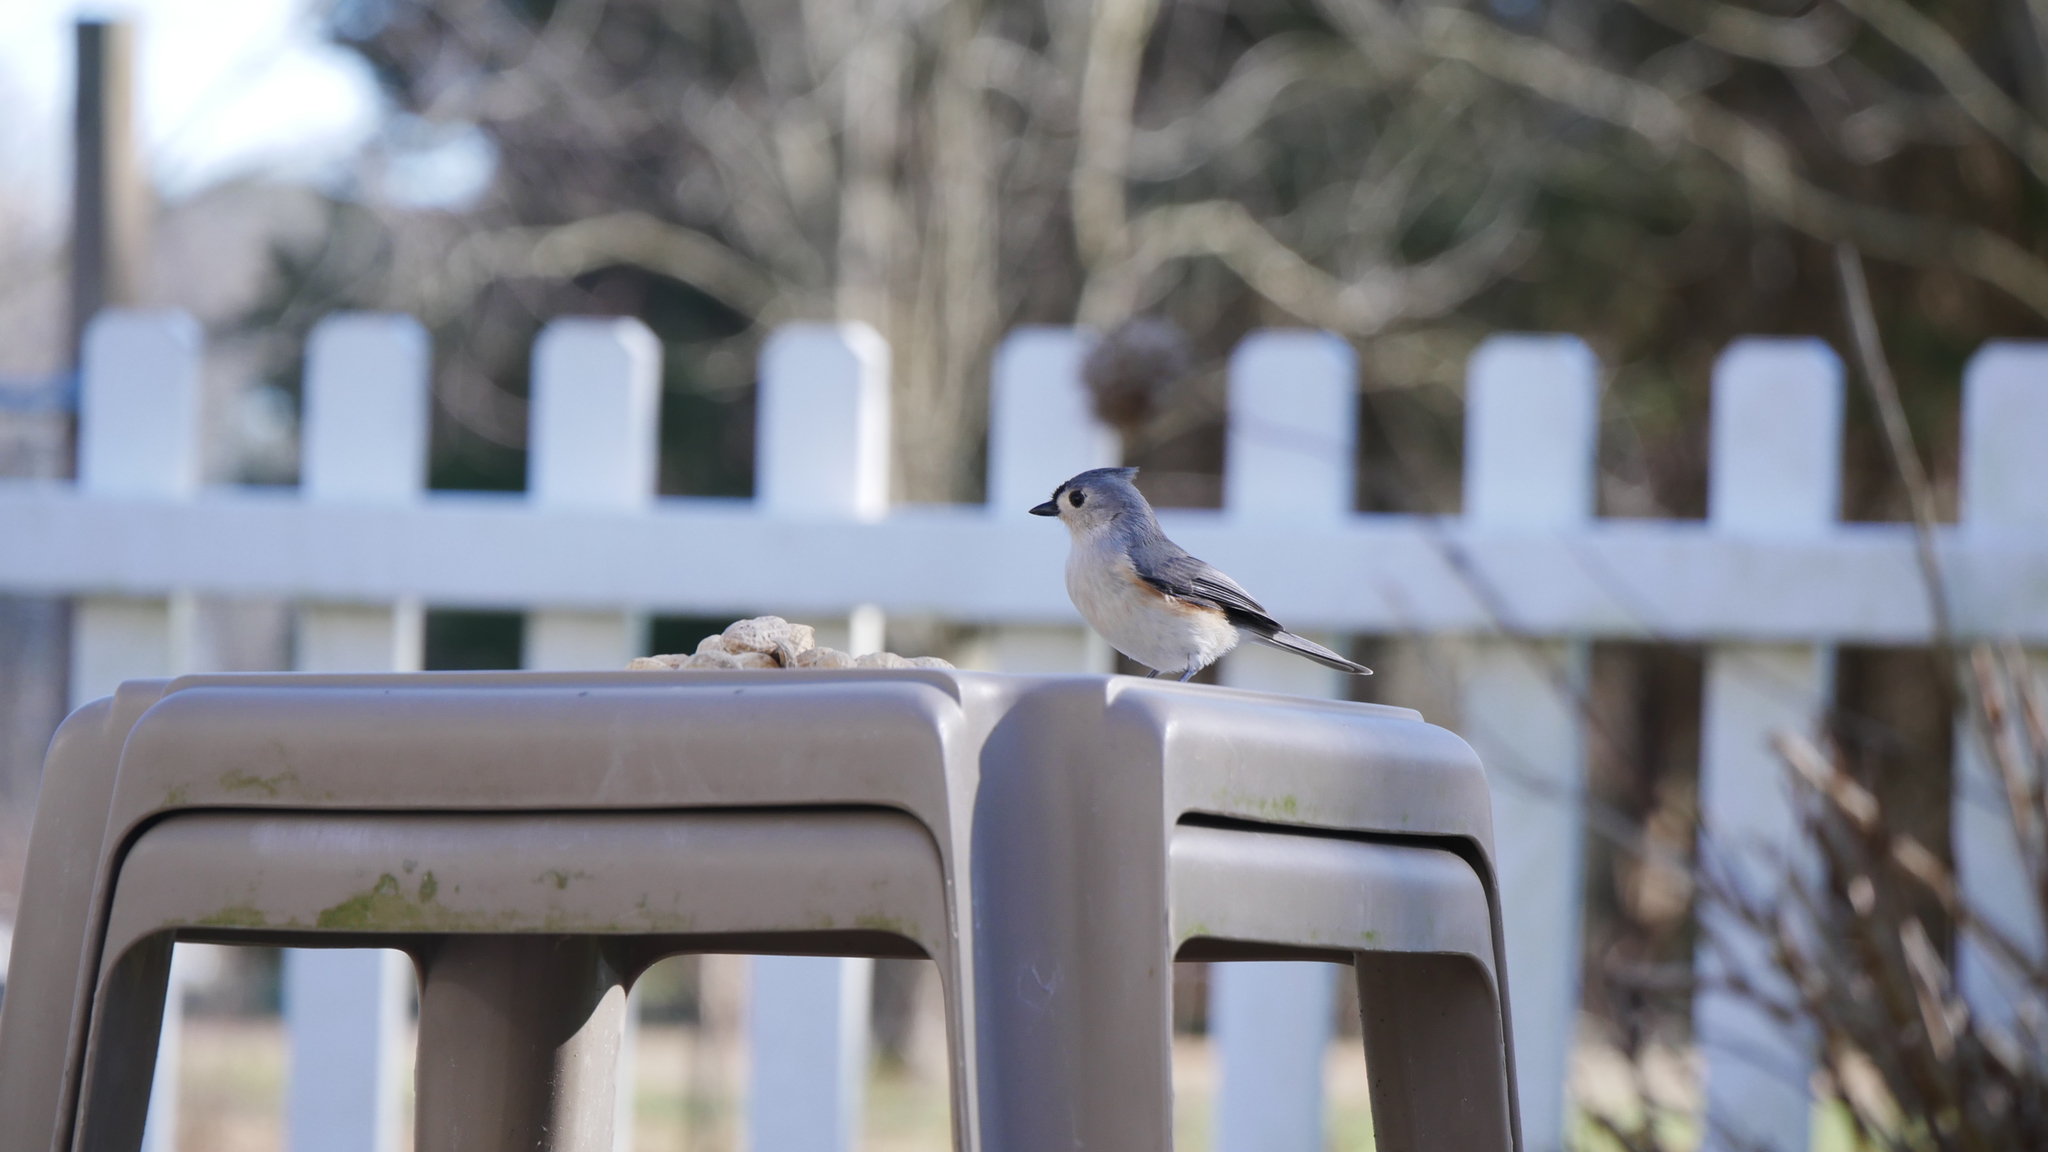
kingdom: Animalia
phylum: Chordata
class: Aves
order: Passeriformes
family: Paridae
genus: Baeolophus
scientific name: Baeolophus bicolor
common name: Tufted titmouse
